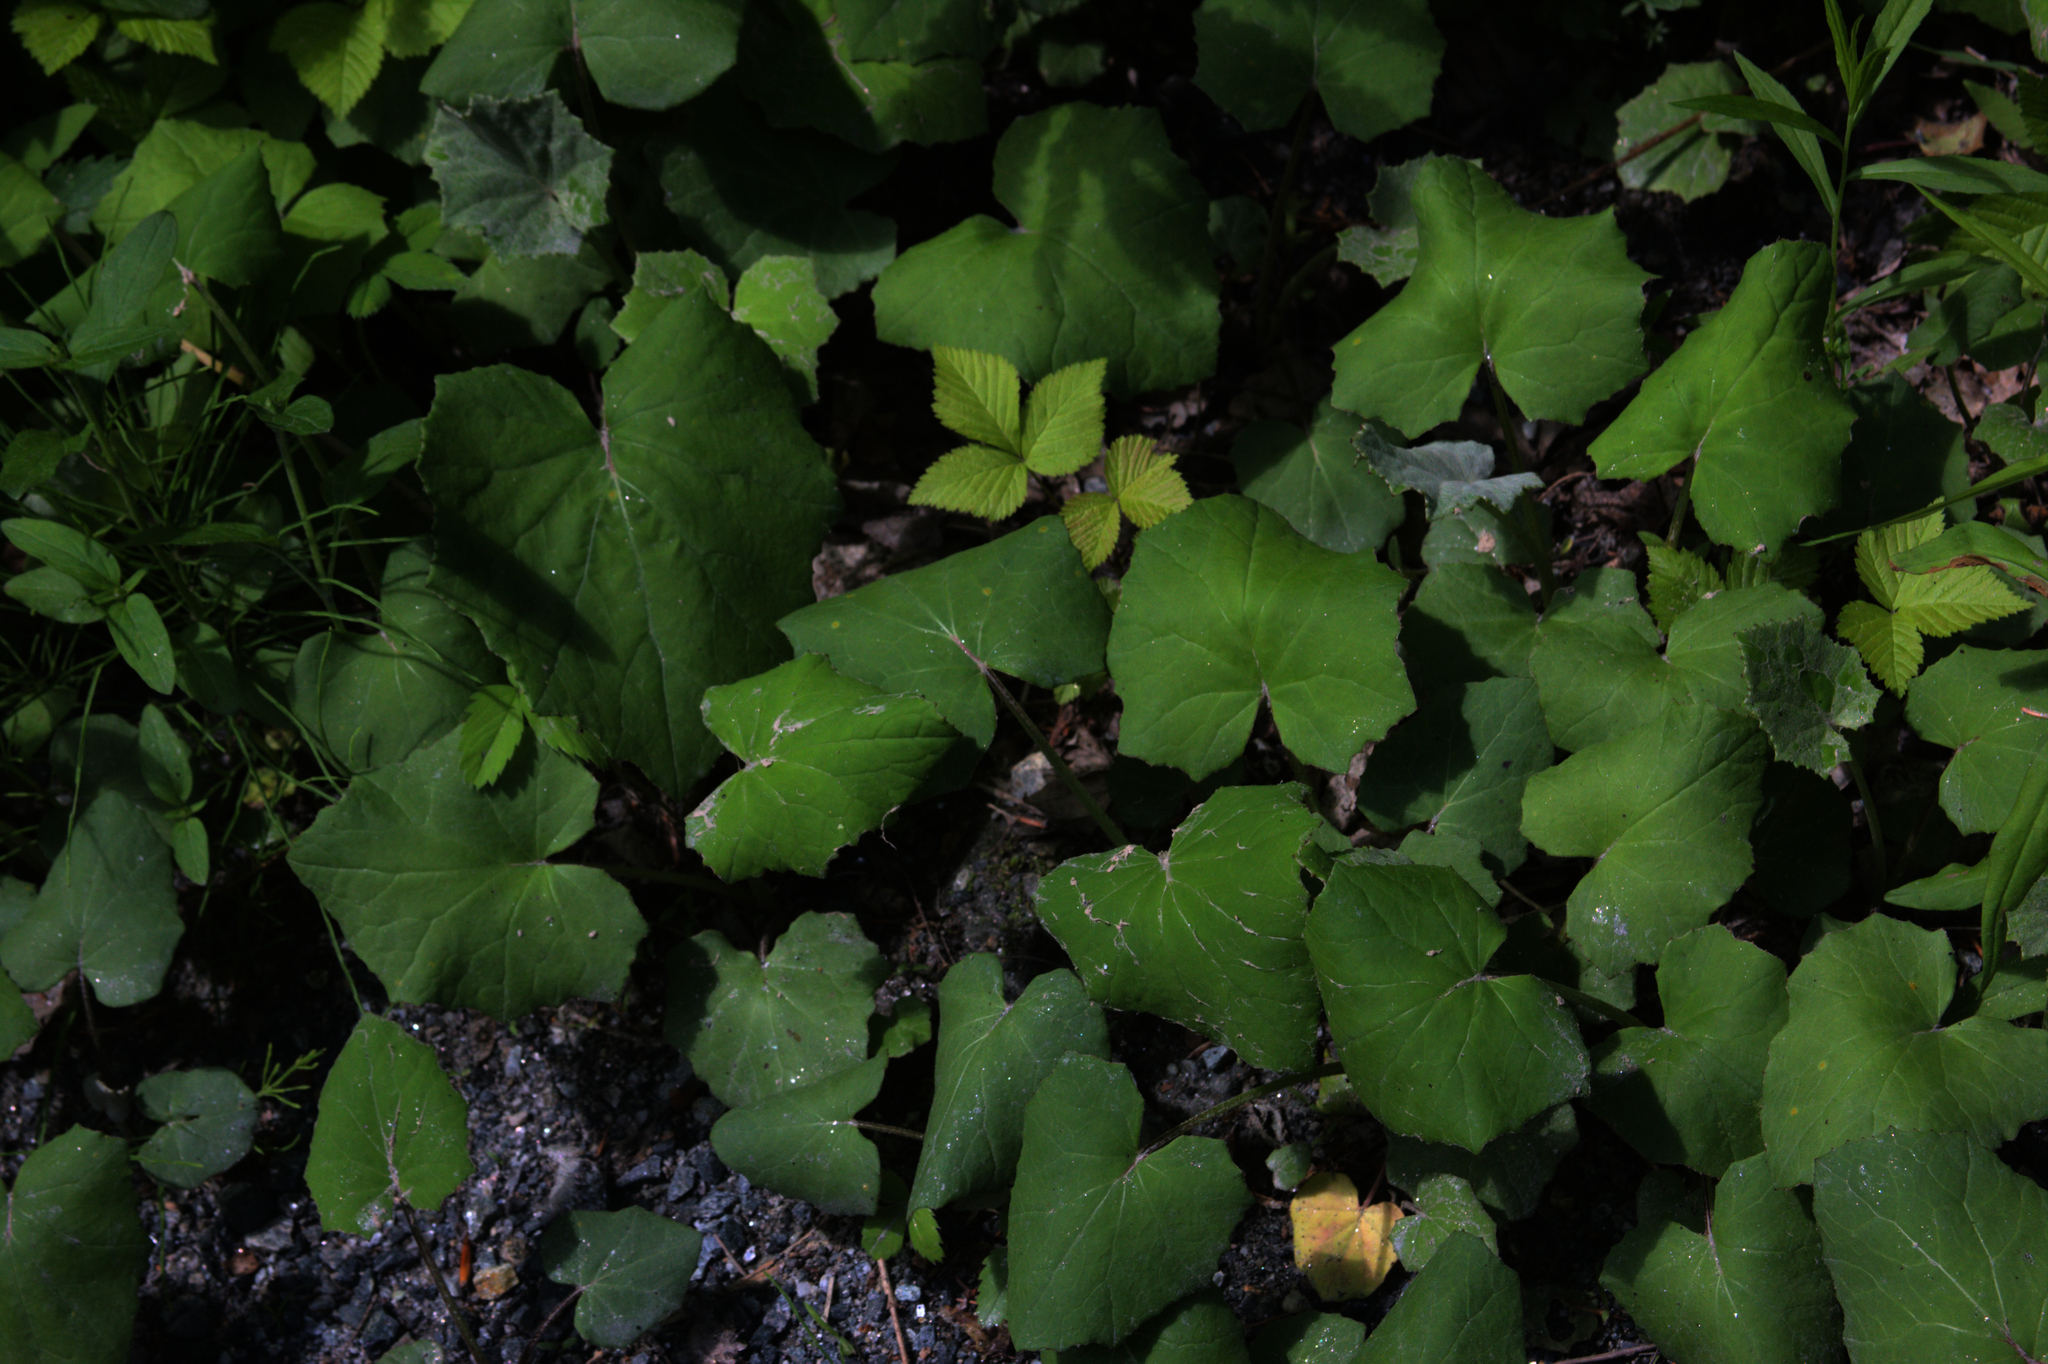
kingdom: Plantae
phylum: Tracheophyta
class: Magnoliopsida
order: Asterales
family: Asteraceae
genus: Tussilago
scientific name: Tussilago farfara
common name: Coltsfoot
